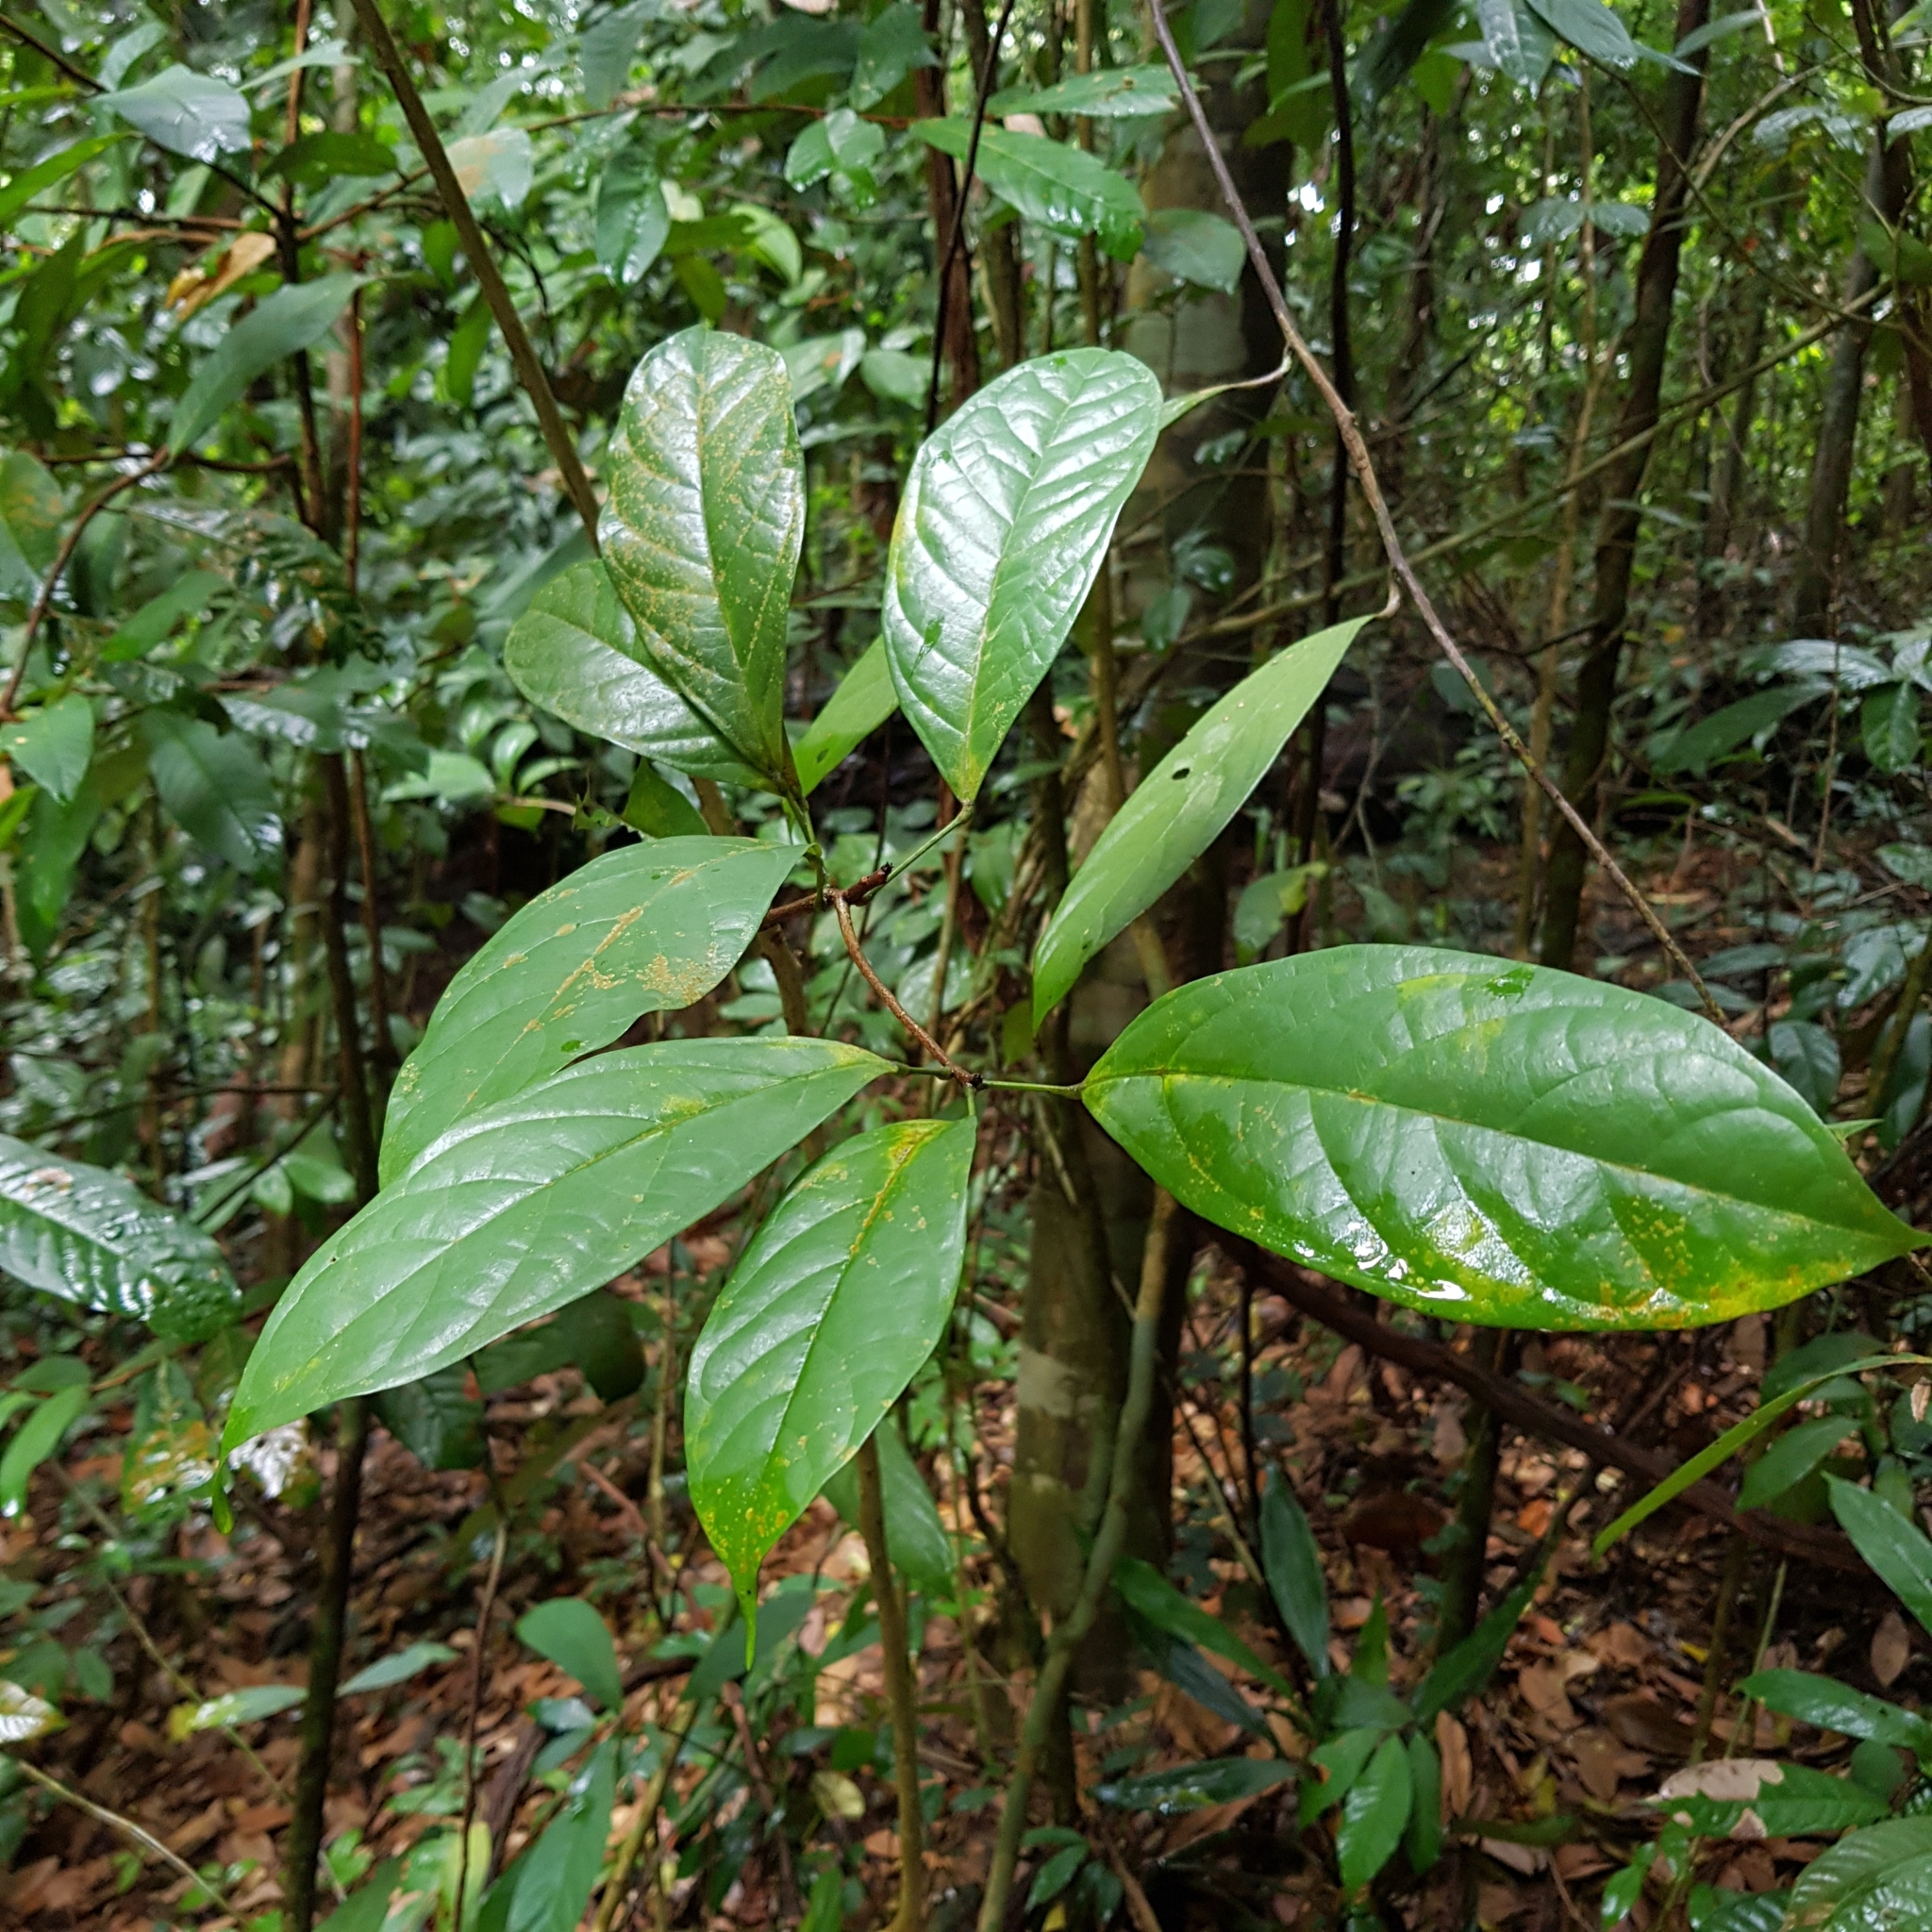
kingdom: Plantae
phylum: Tracheophyta
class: Magnoliopsida
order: Malvales
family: Malvaceae
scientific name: Malvaceae
